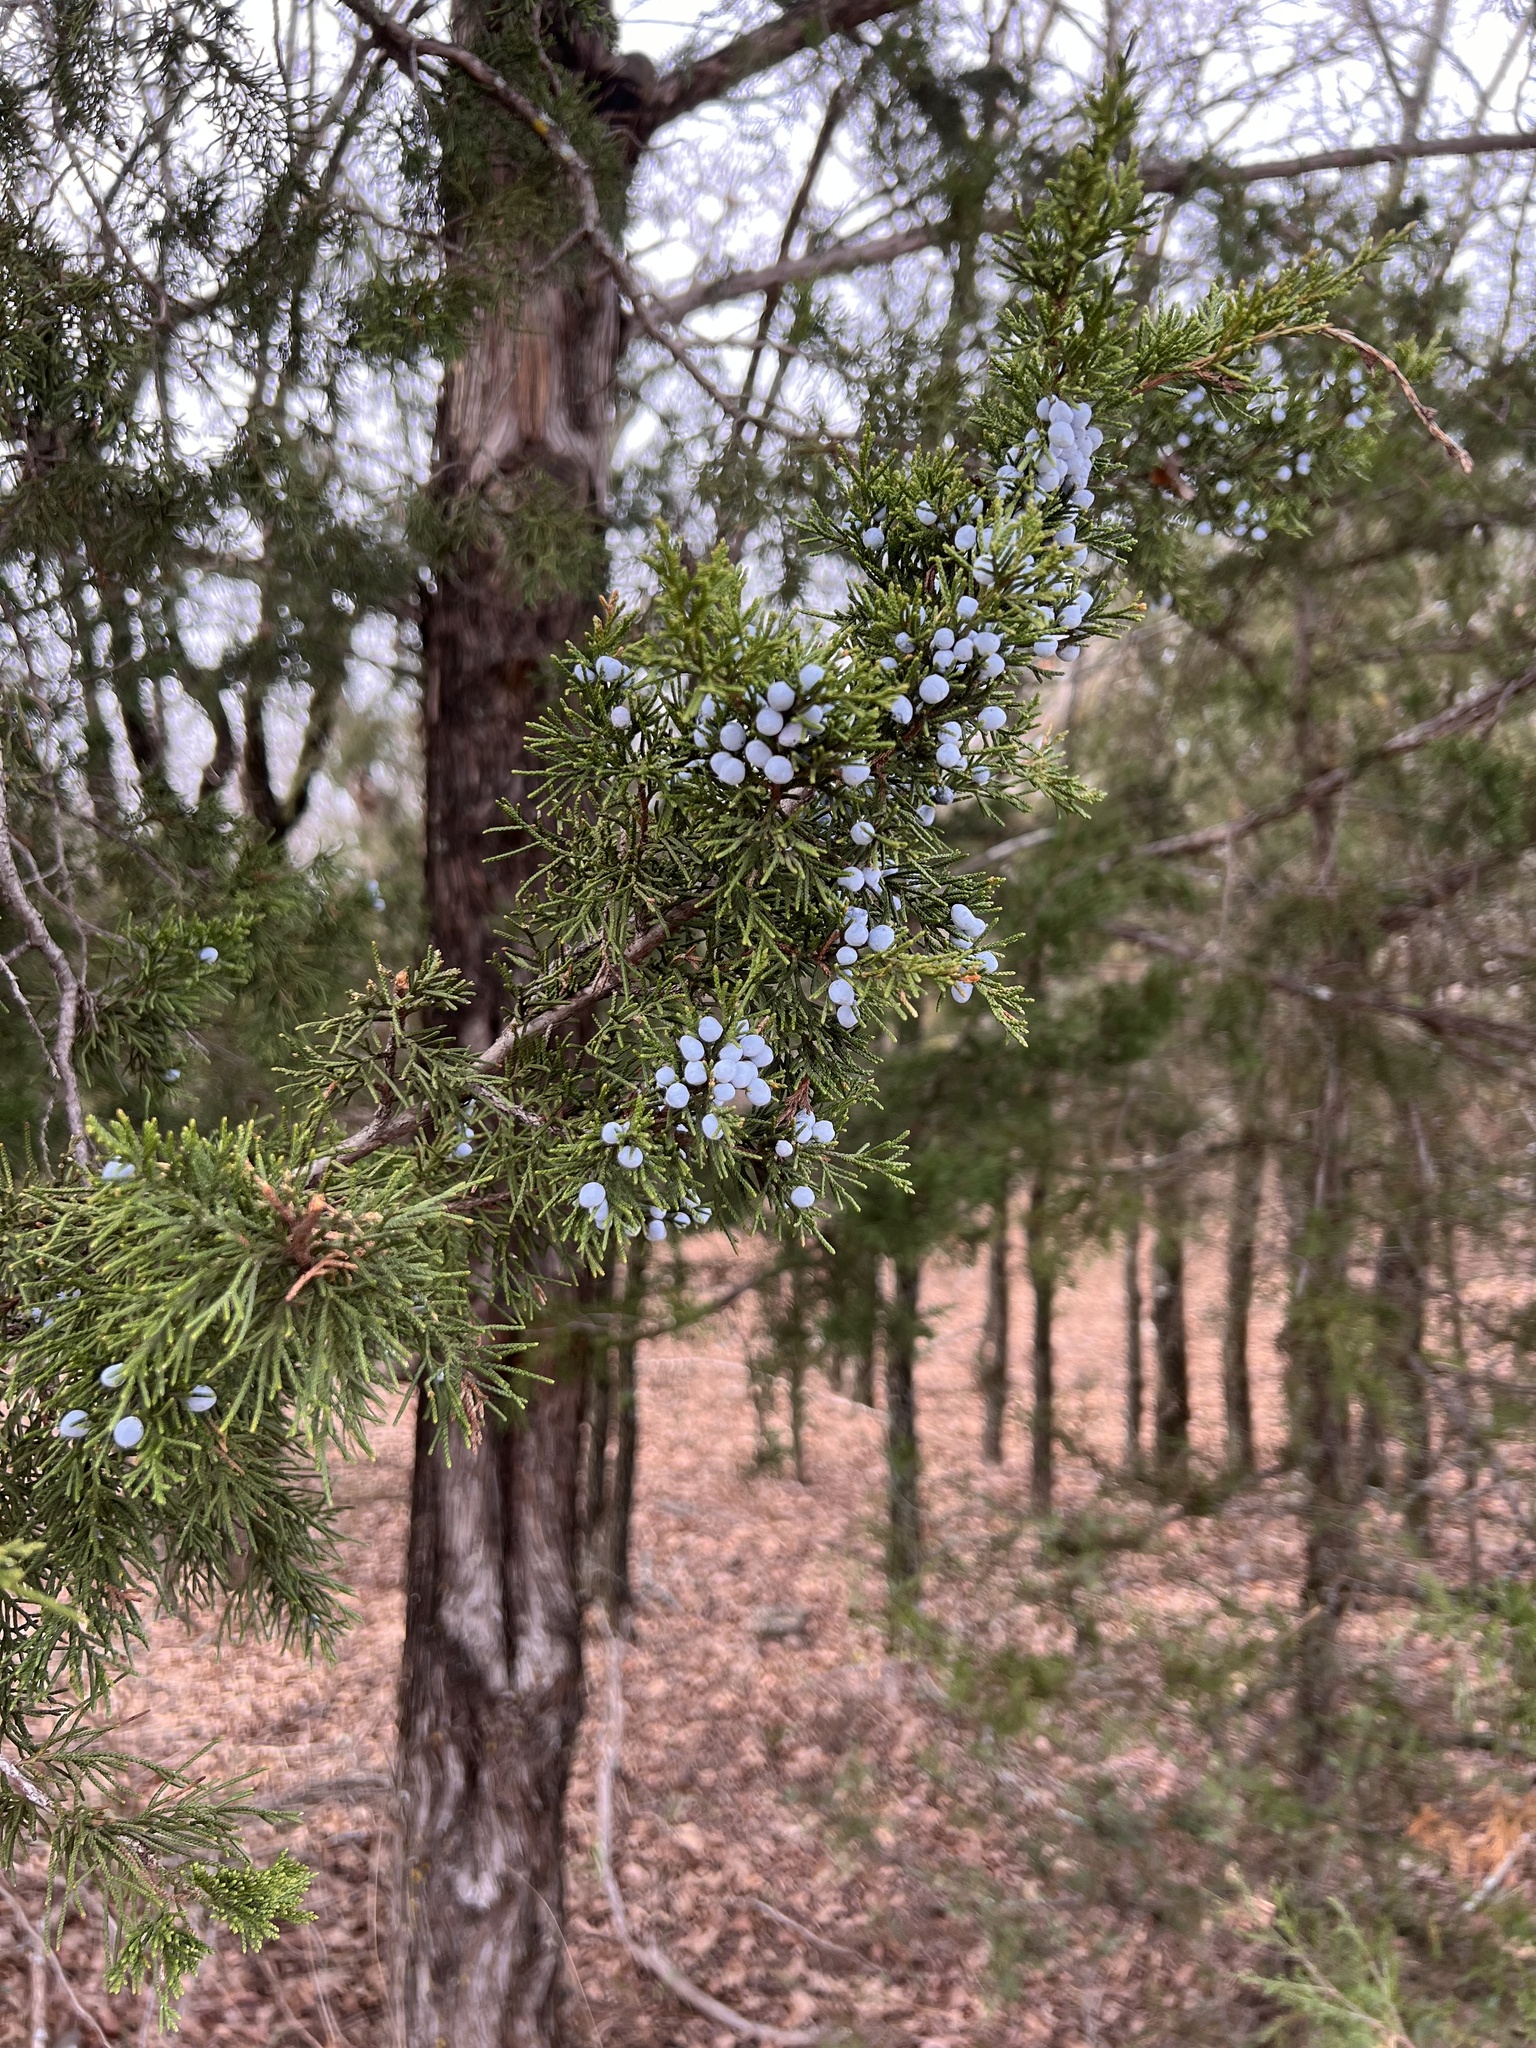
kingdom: Plantae
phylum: Tracheophyta
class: Pinopsida
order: Pinales
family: Cupressaceae
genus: Juniperus
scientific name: Juniperus virginiana
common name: Red juniper
